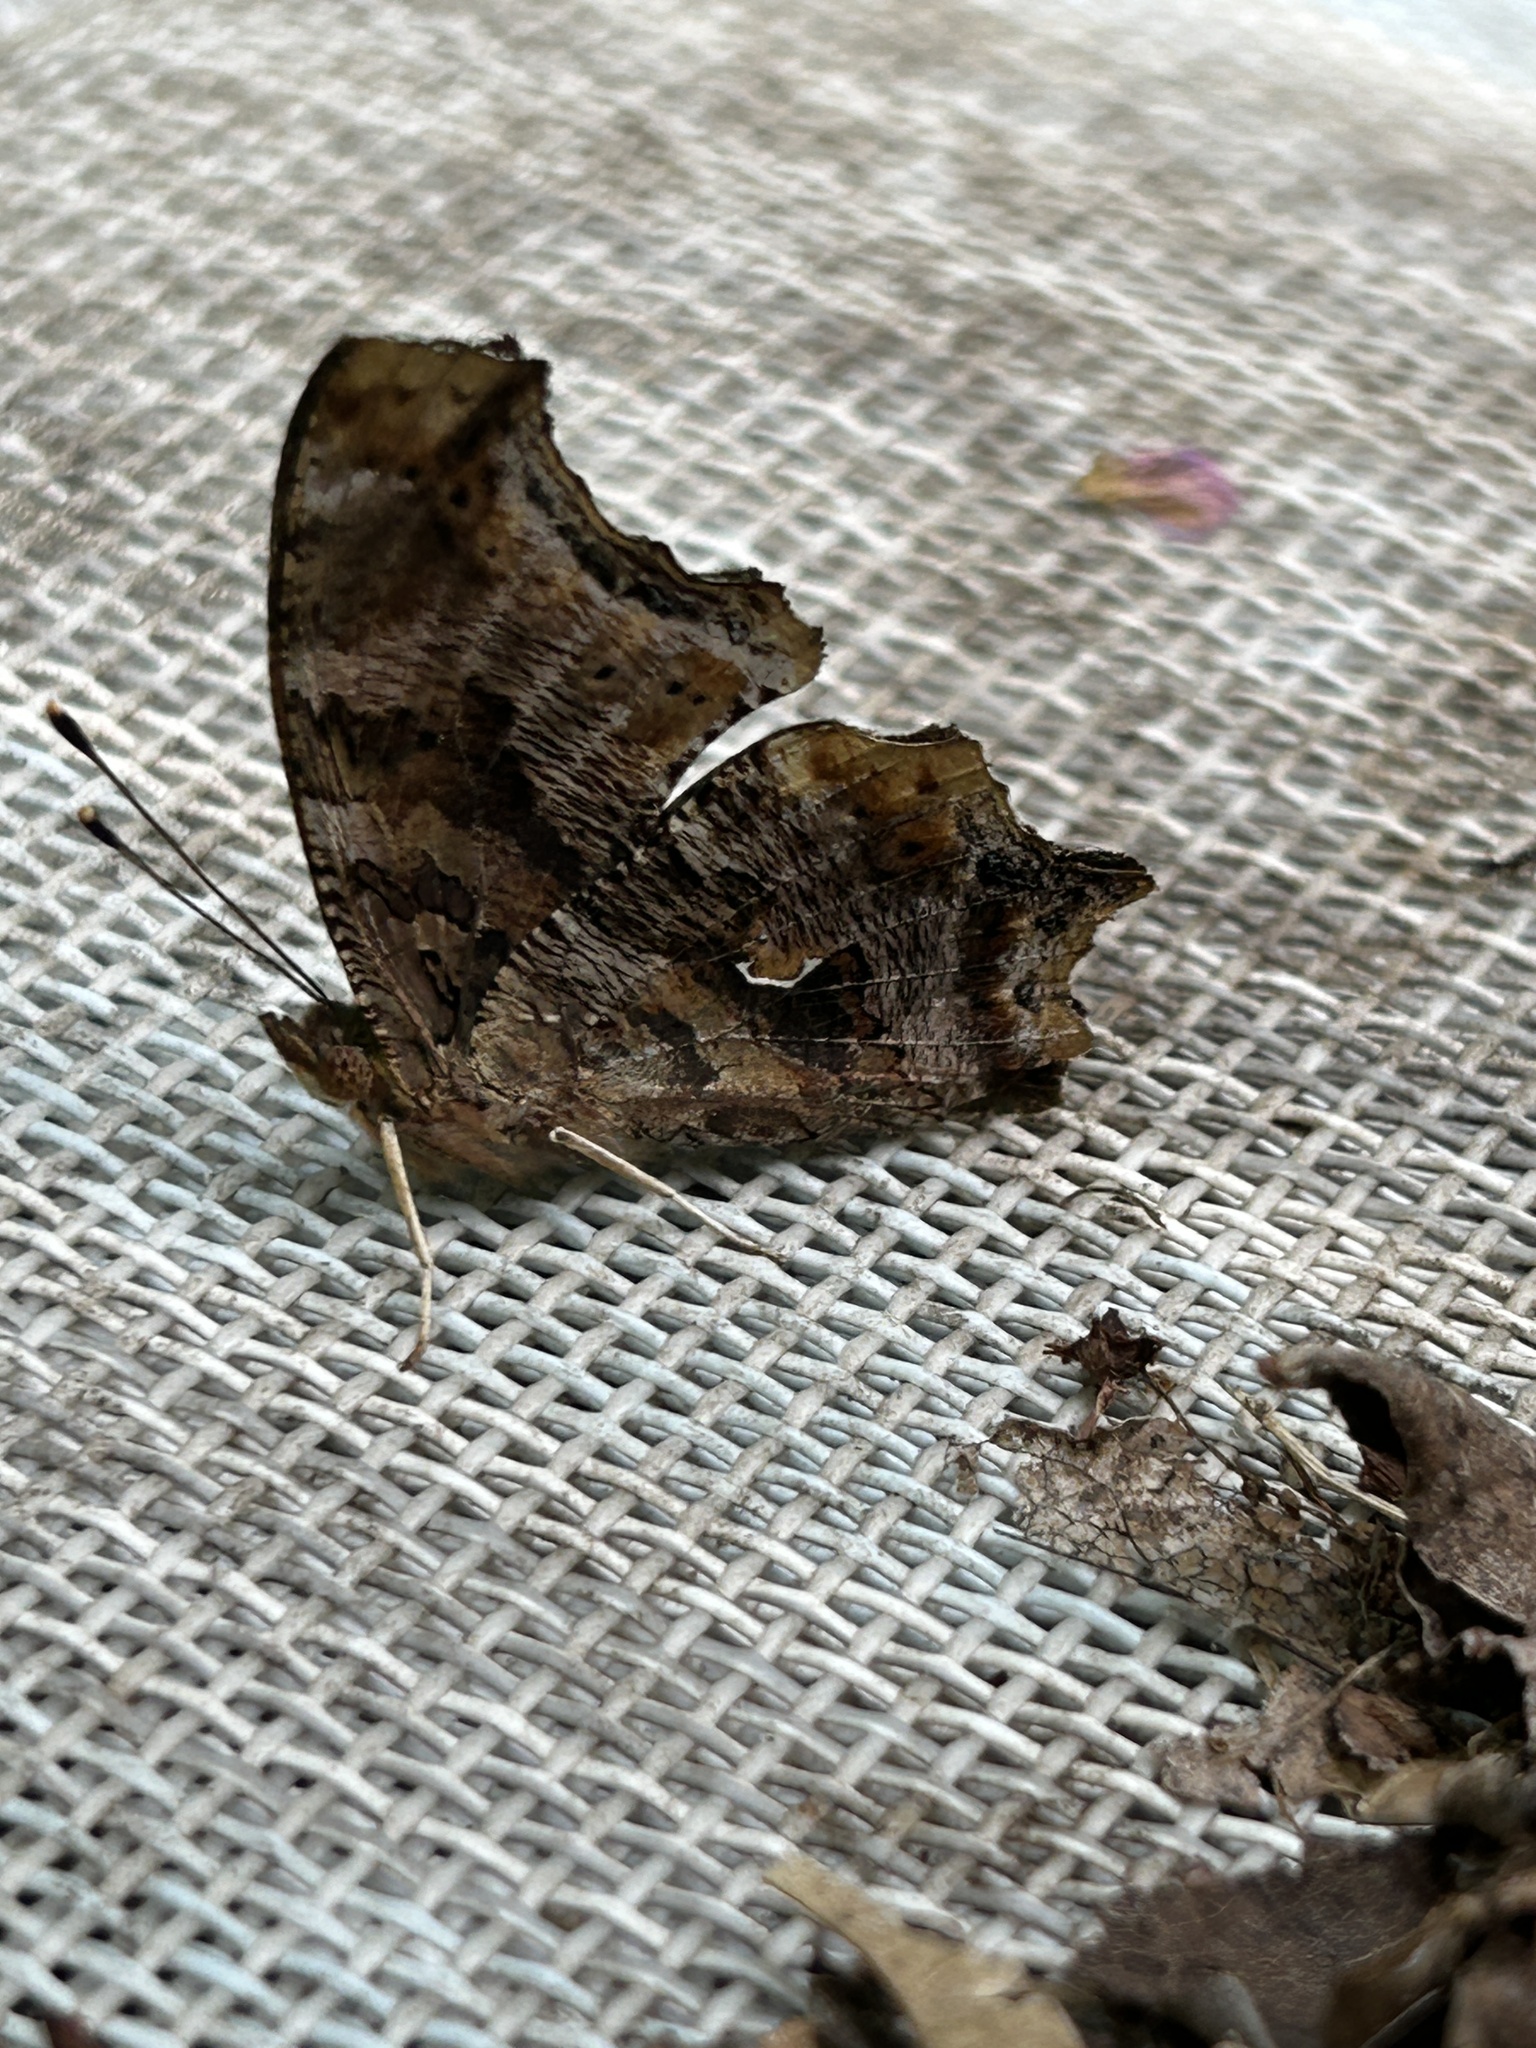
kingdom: Animalia
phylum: Arthropoda
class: Insecta
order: Lepidoptera
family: Nymphalidae
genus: Polygonia
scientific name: Polygonia comma
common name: Eastern comma
